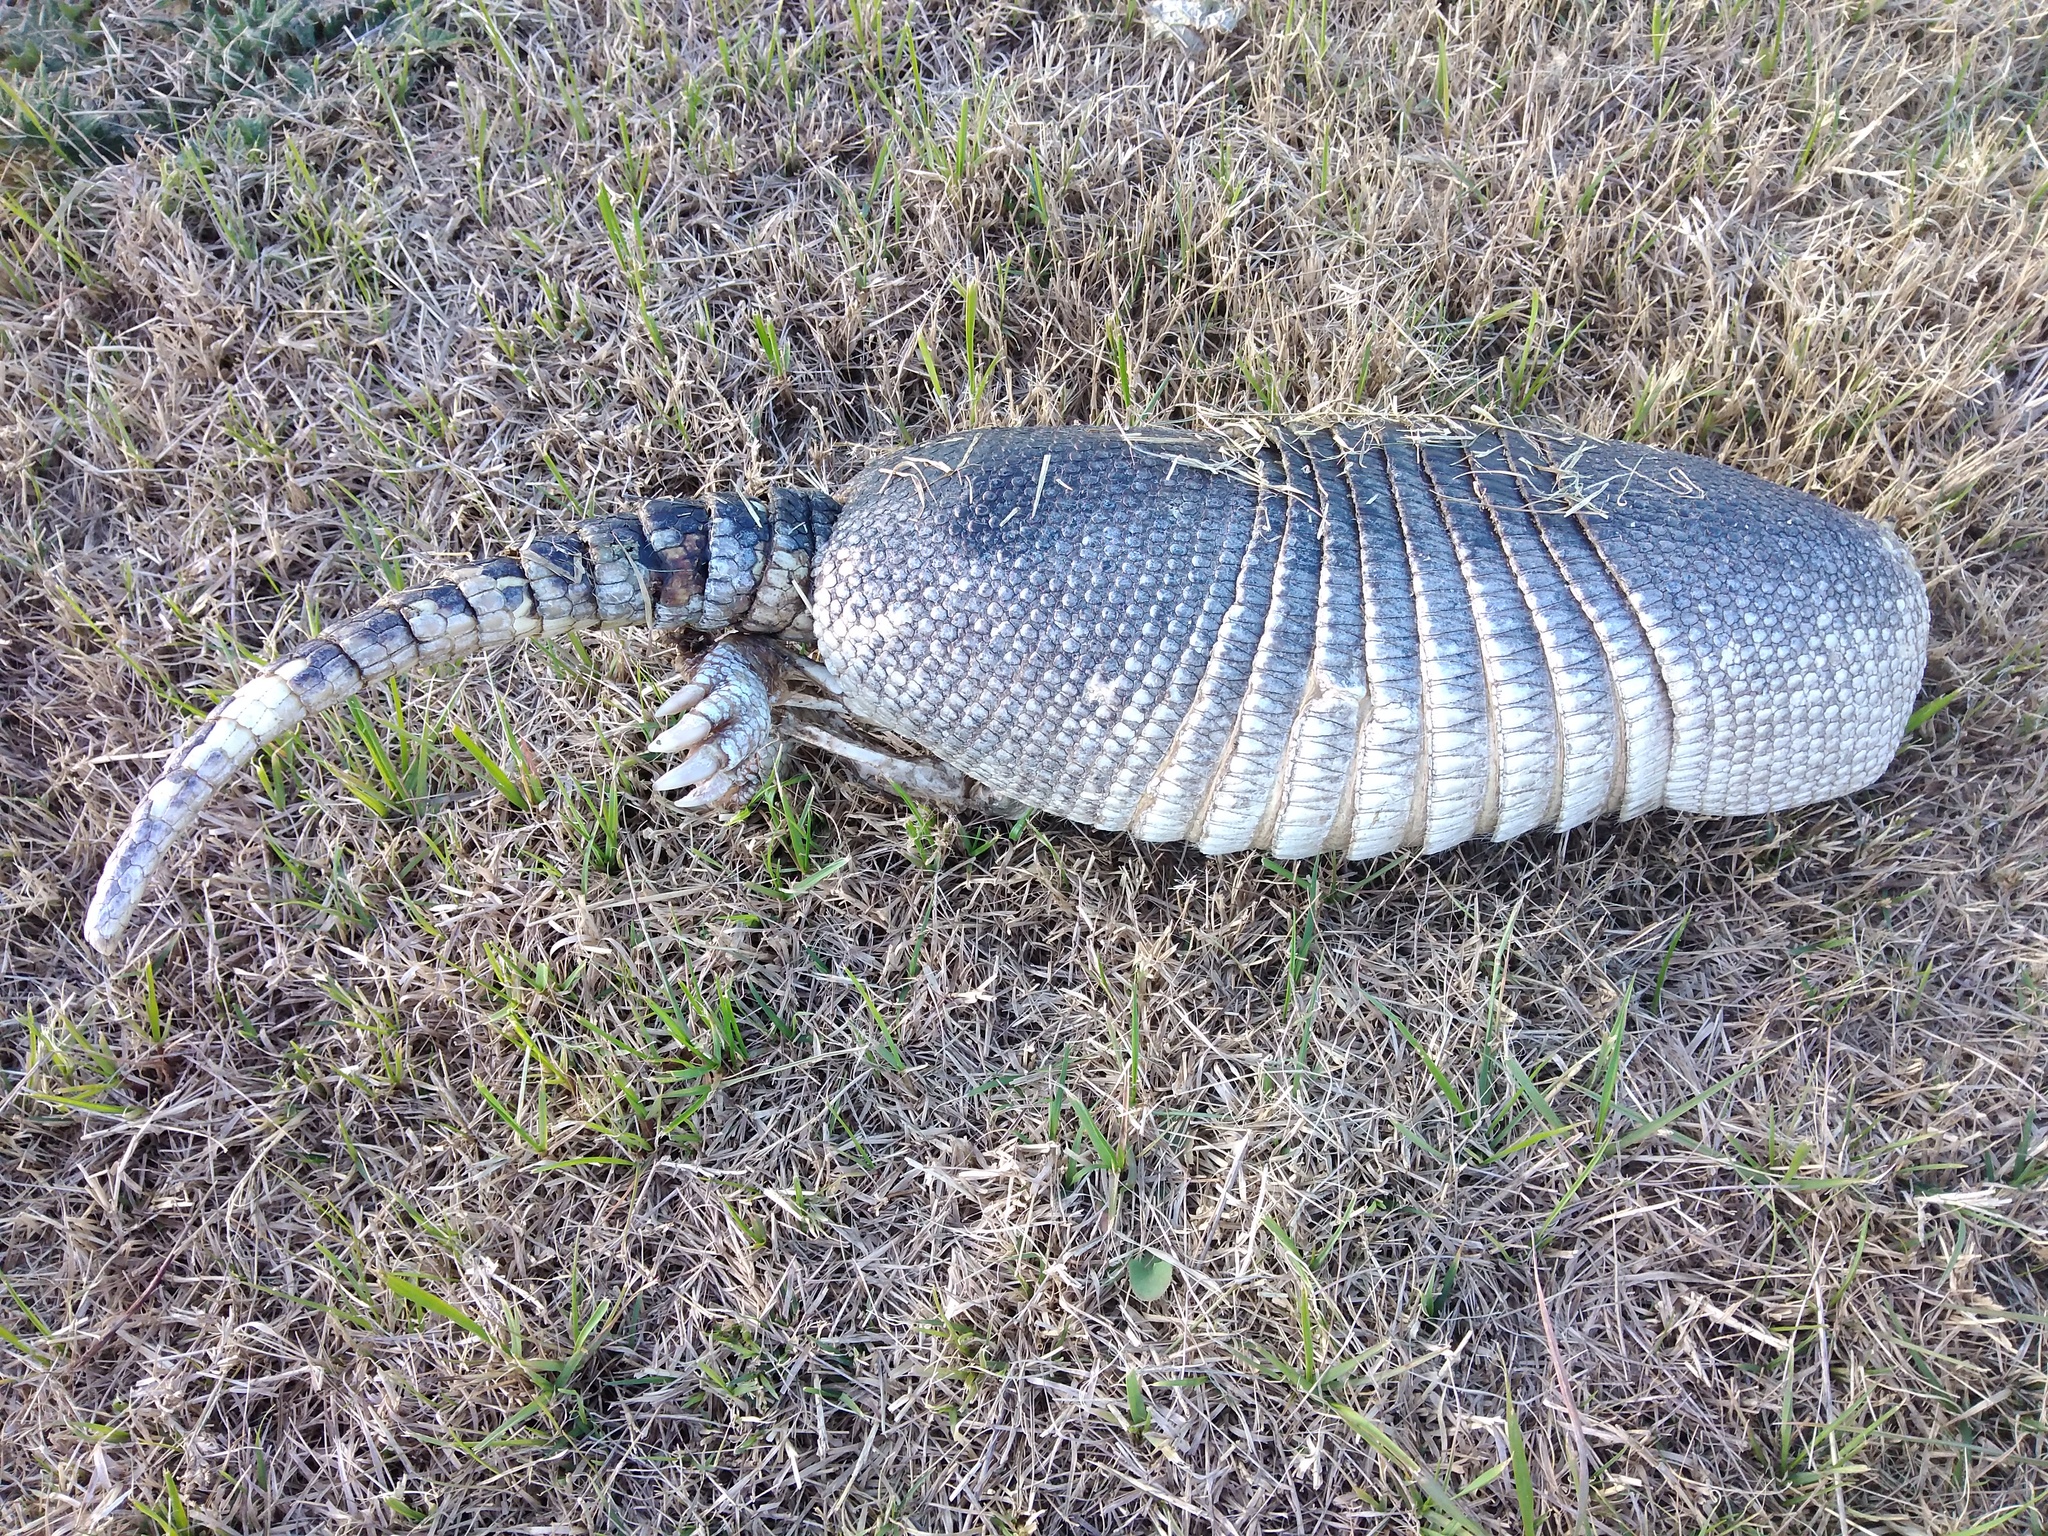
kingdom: Animalia
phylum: Chordata
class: Mammalia
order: Cingulata
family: Dasypodidae
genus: Dasypus
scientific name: Dasypus novemcinctus
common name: Nine-banded armadillo
